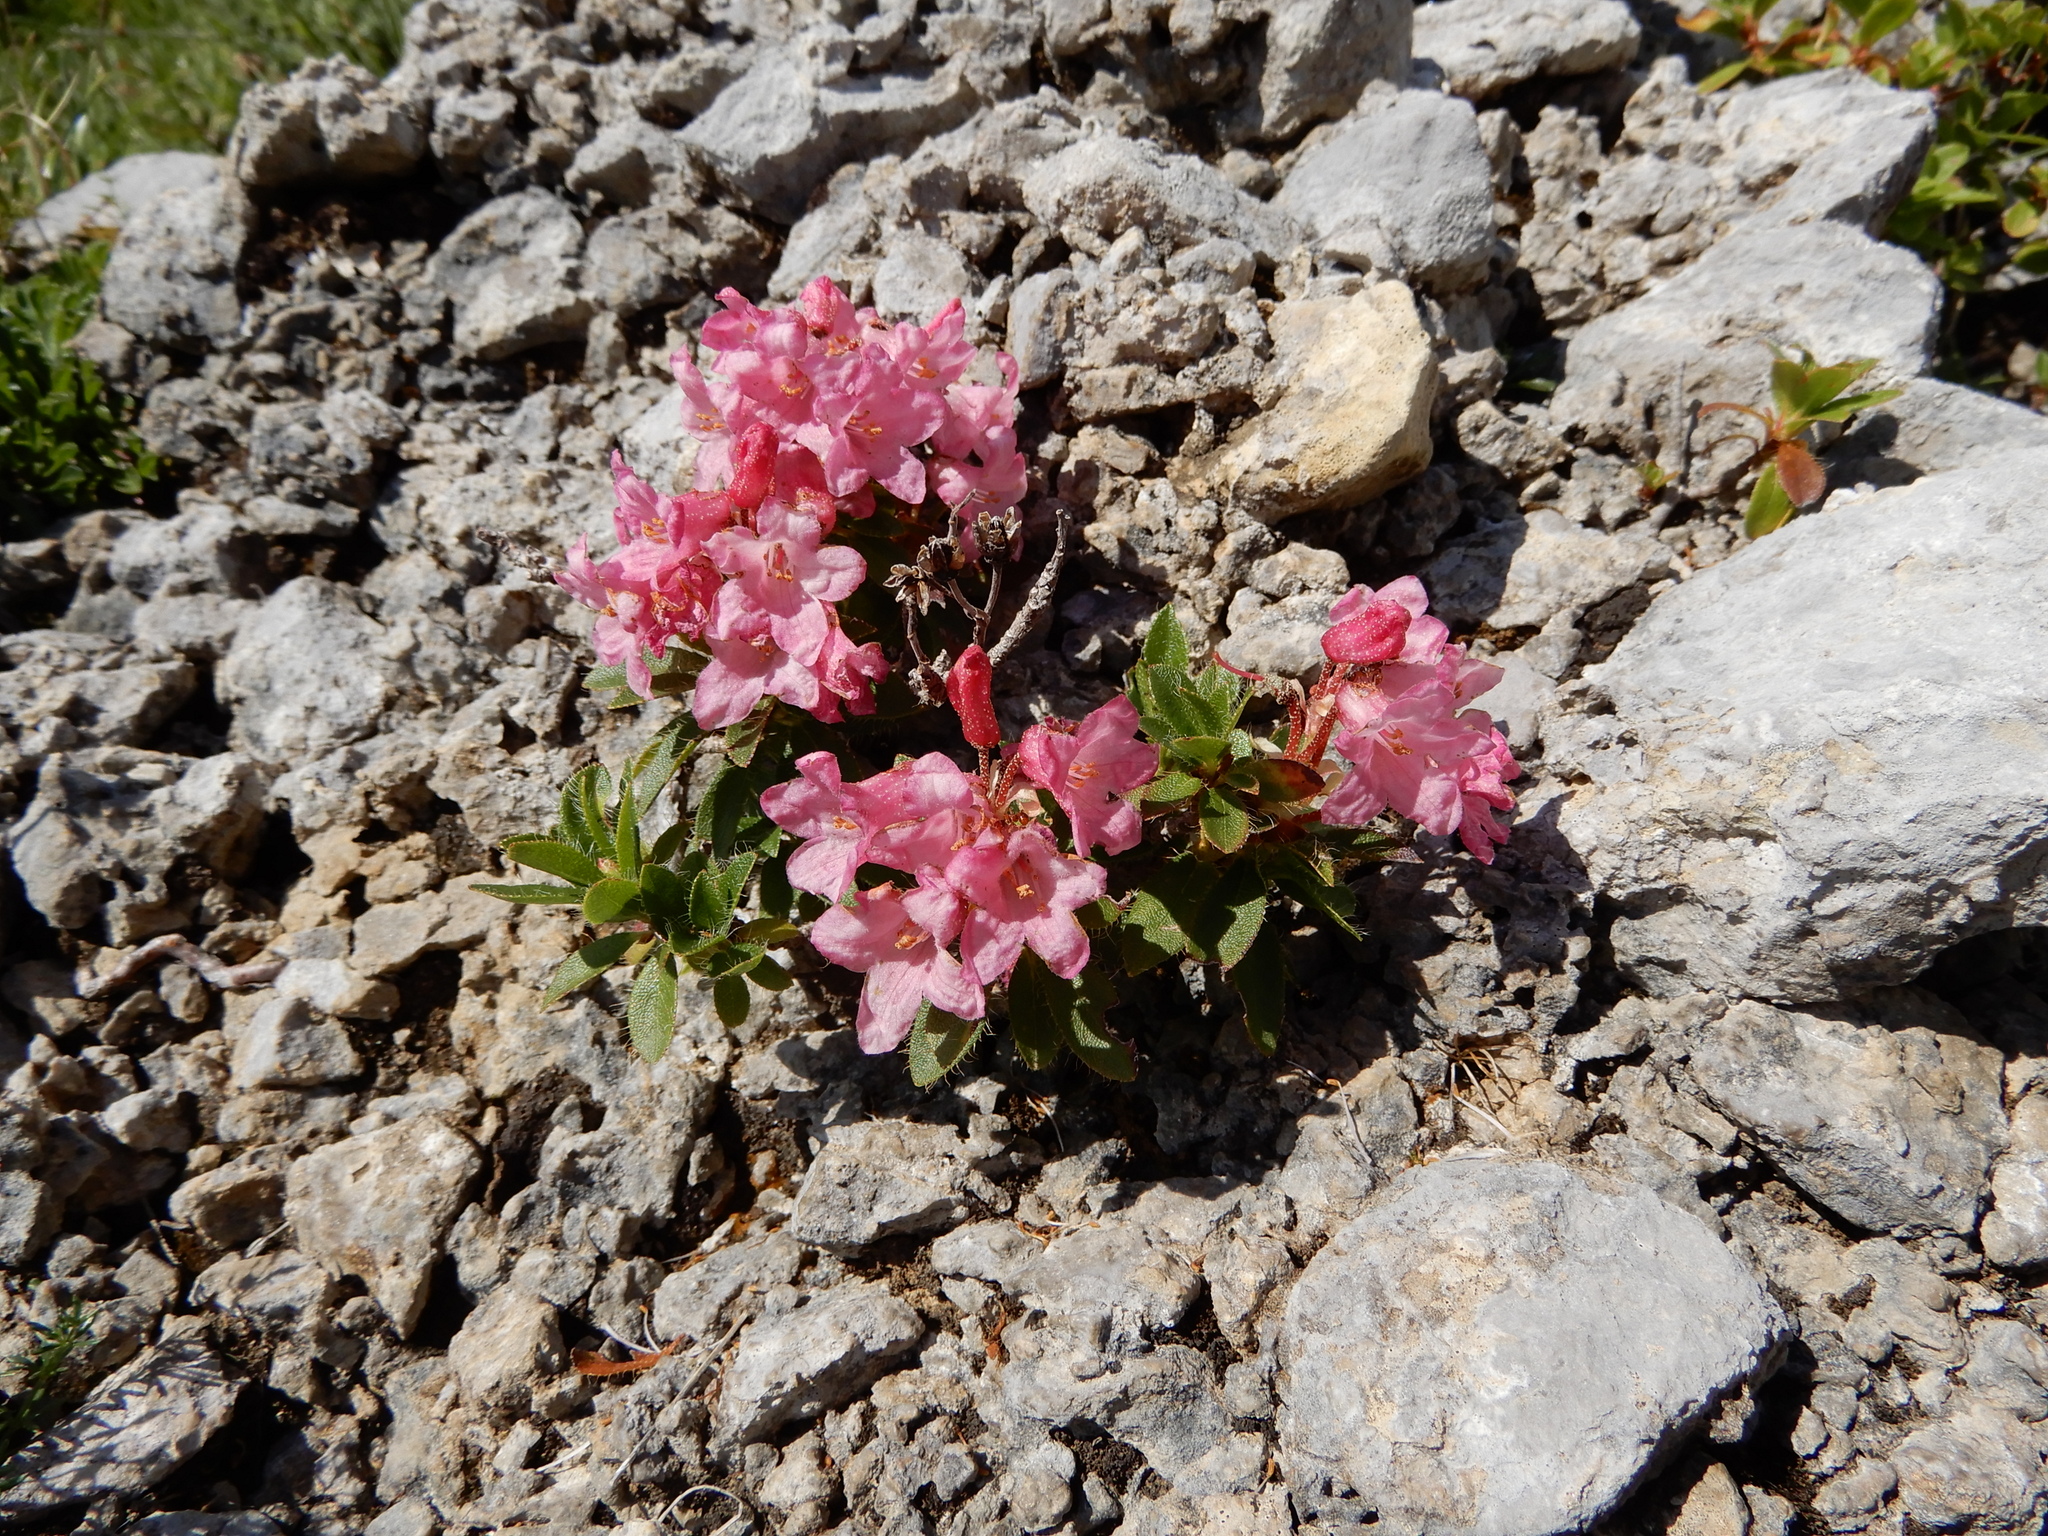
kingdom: Plantae
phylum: Tracheophyta
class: Magnoliopsida
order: Ericales
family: Ericaceae
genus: Rhododendron
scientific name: Rhododendron hirsutum
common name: Hairy alpenrose
